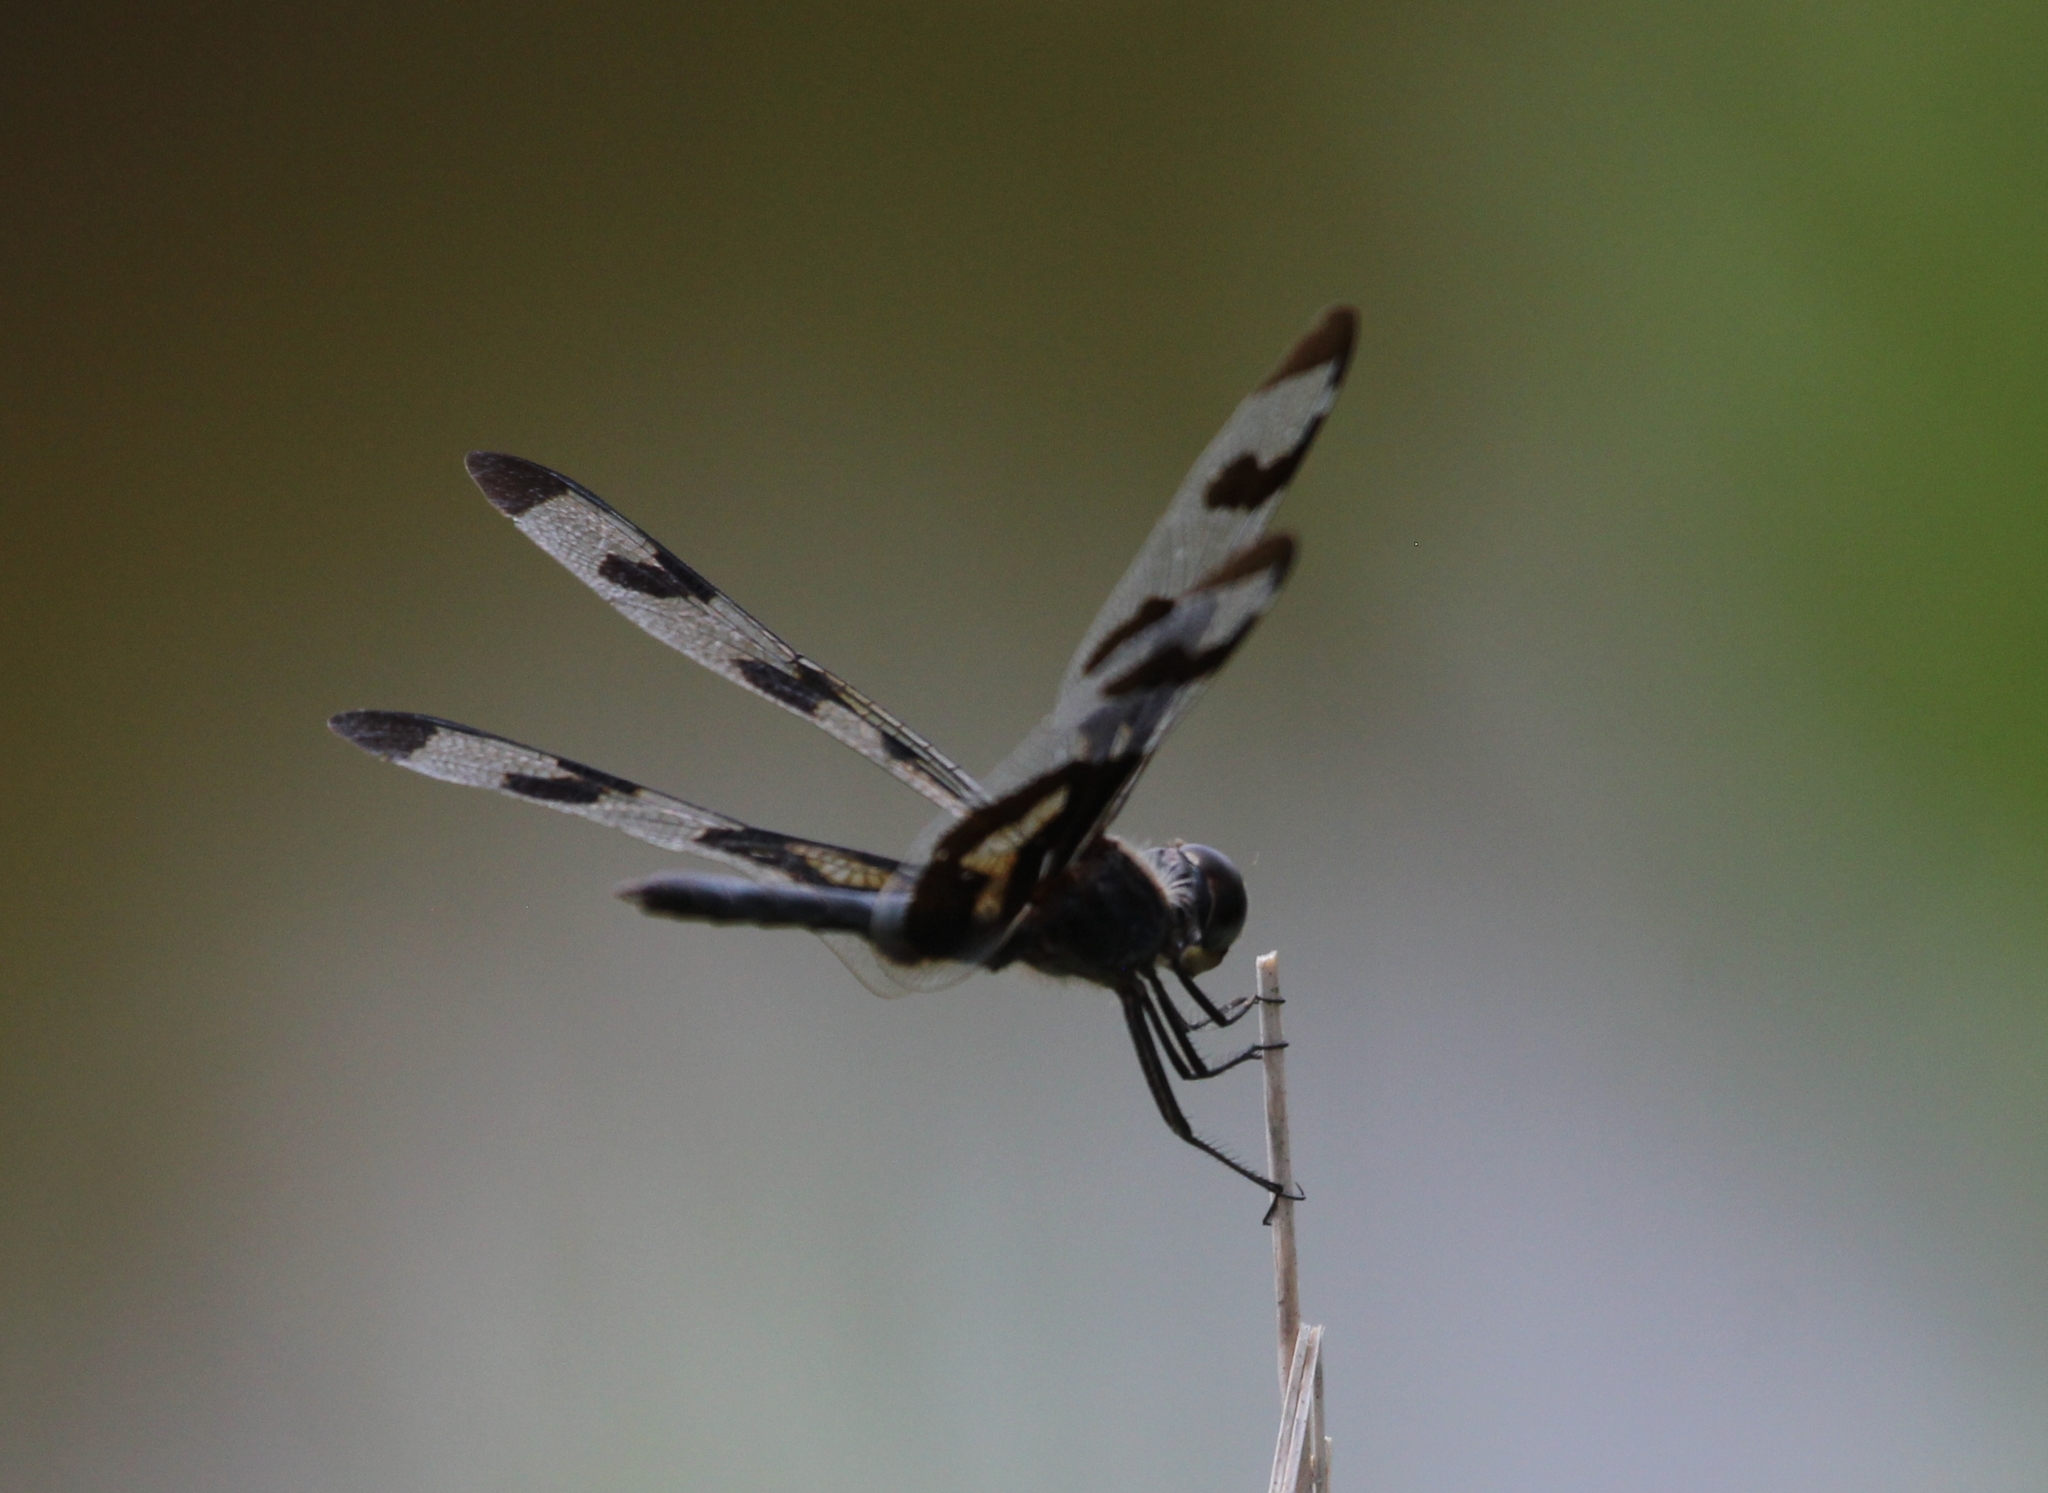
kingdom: Animalia
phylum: Arthropoda
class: Insecta
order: Odonata
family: Libellulidae
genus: Celithemis
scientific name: Celithemis fasciata
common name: Banded pennant
